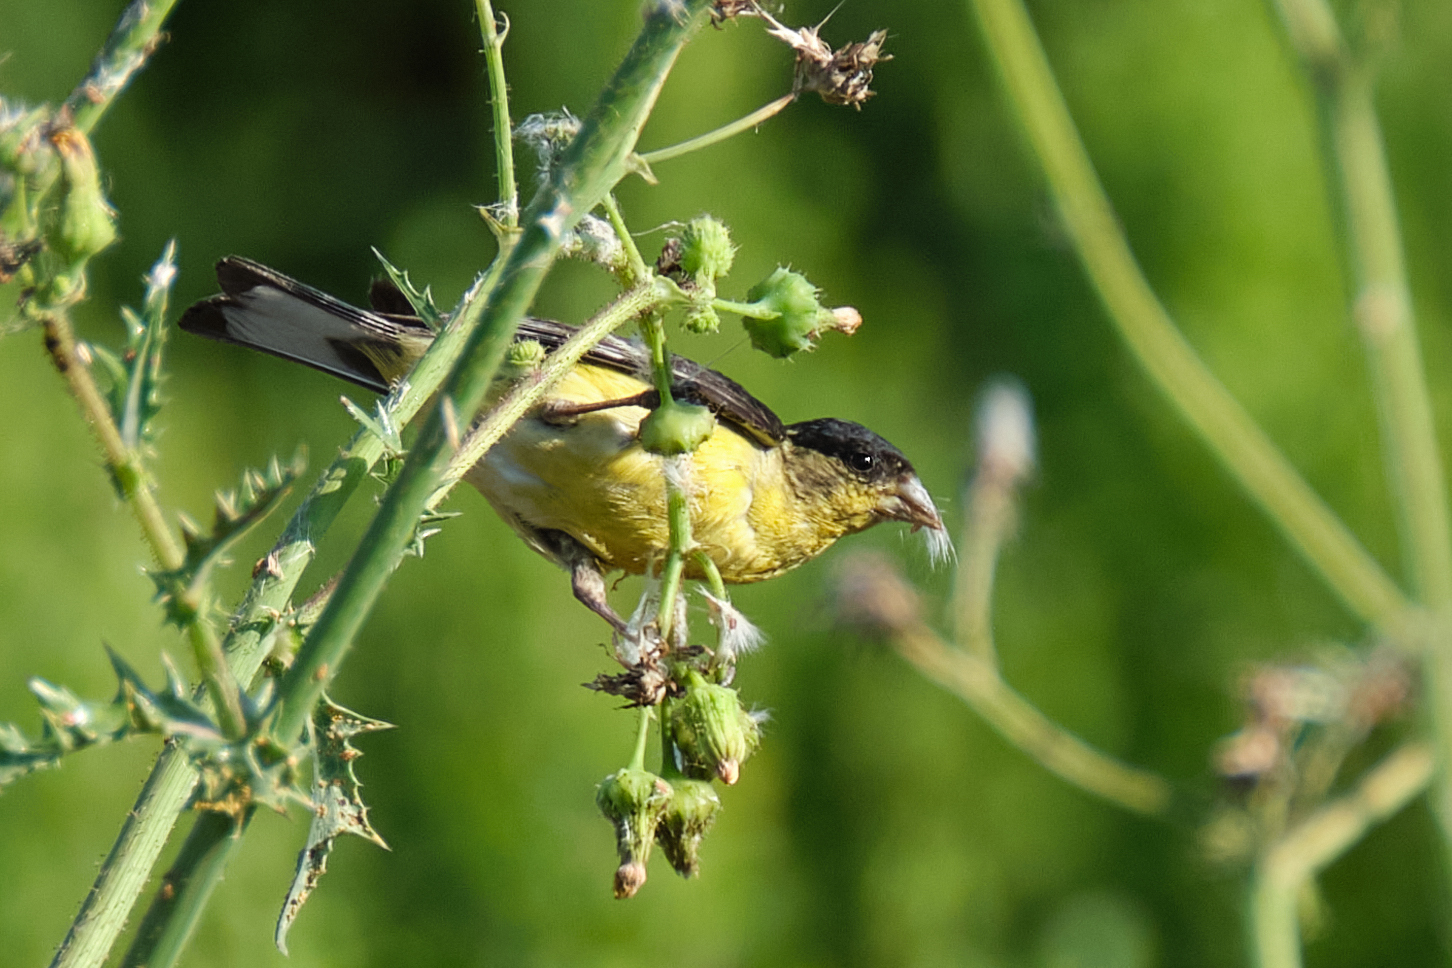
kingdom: Animalia
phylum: Chordata
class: Aves
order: Passeriformes
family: Fringillidae
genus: Spinus
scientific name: Spinus psaltria
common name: Lesser goldfinch
